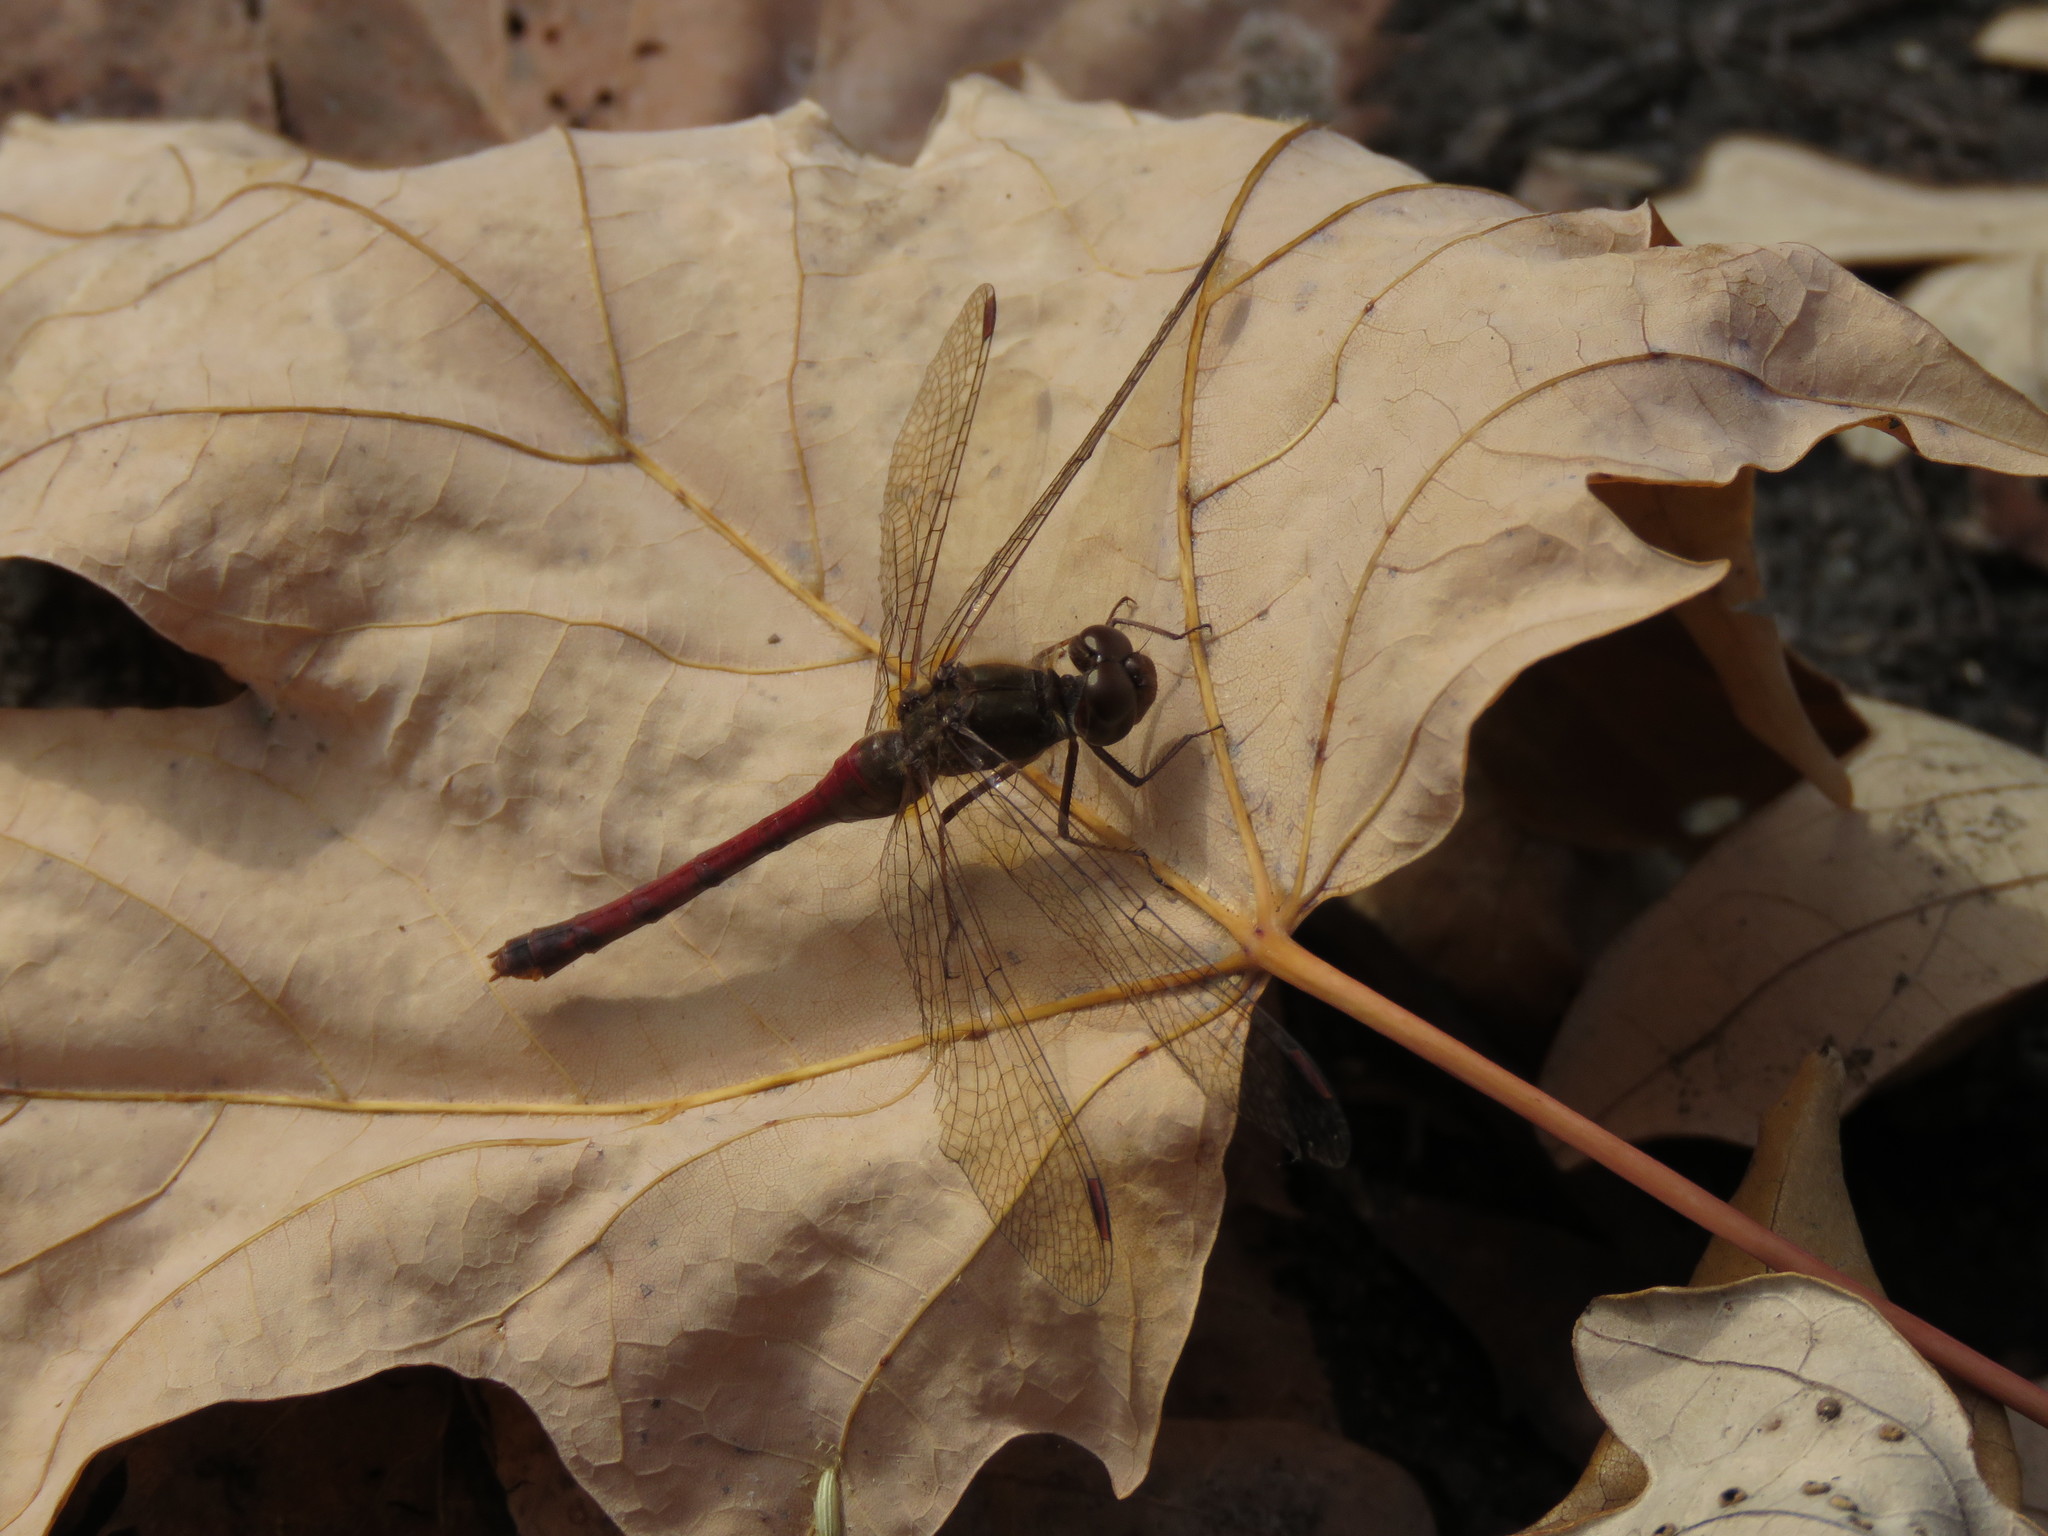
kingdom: Animalia
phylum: Arthropoda
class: Insecta
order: Odonata
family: Libellulidae
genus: Sympetrum
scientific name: Sympetrum vicinum
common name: Autumn meadowhawk
